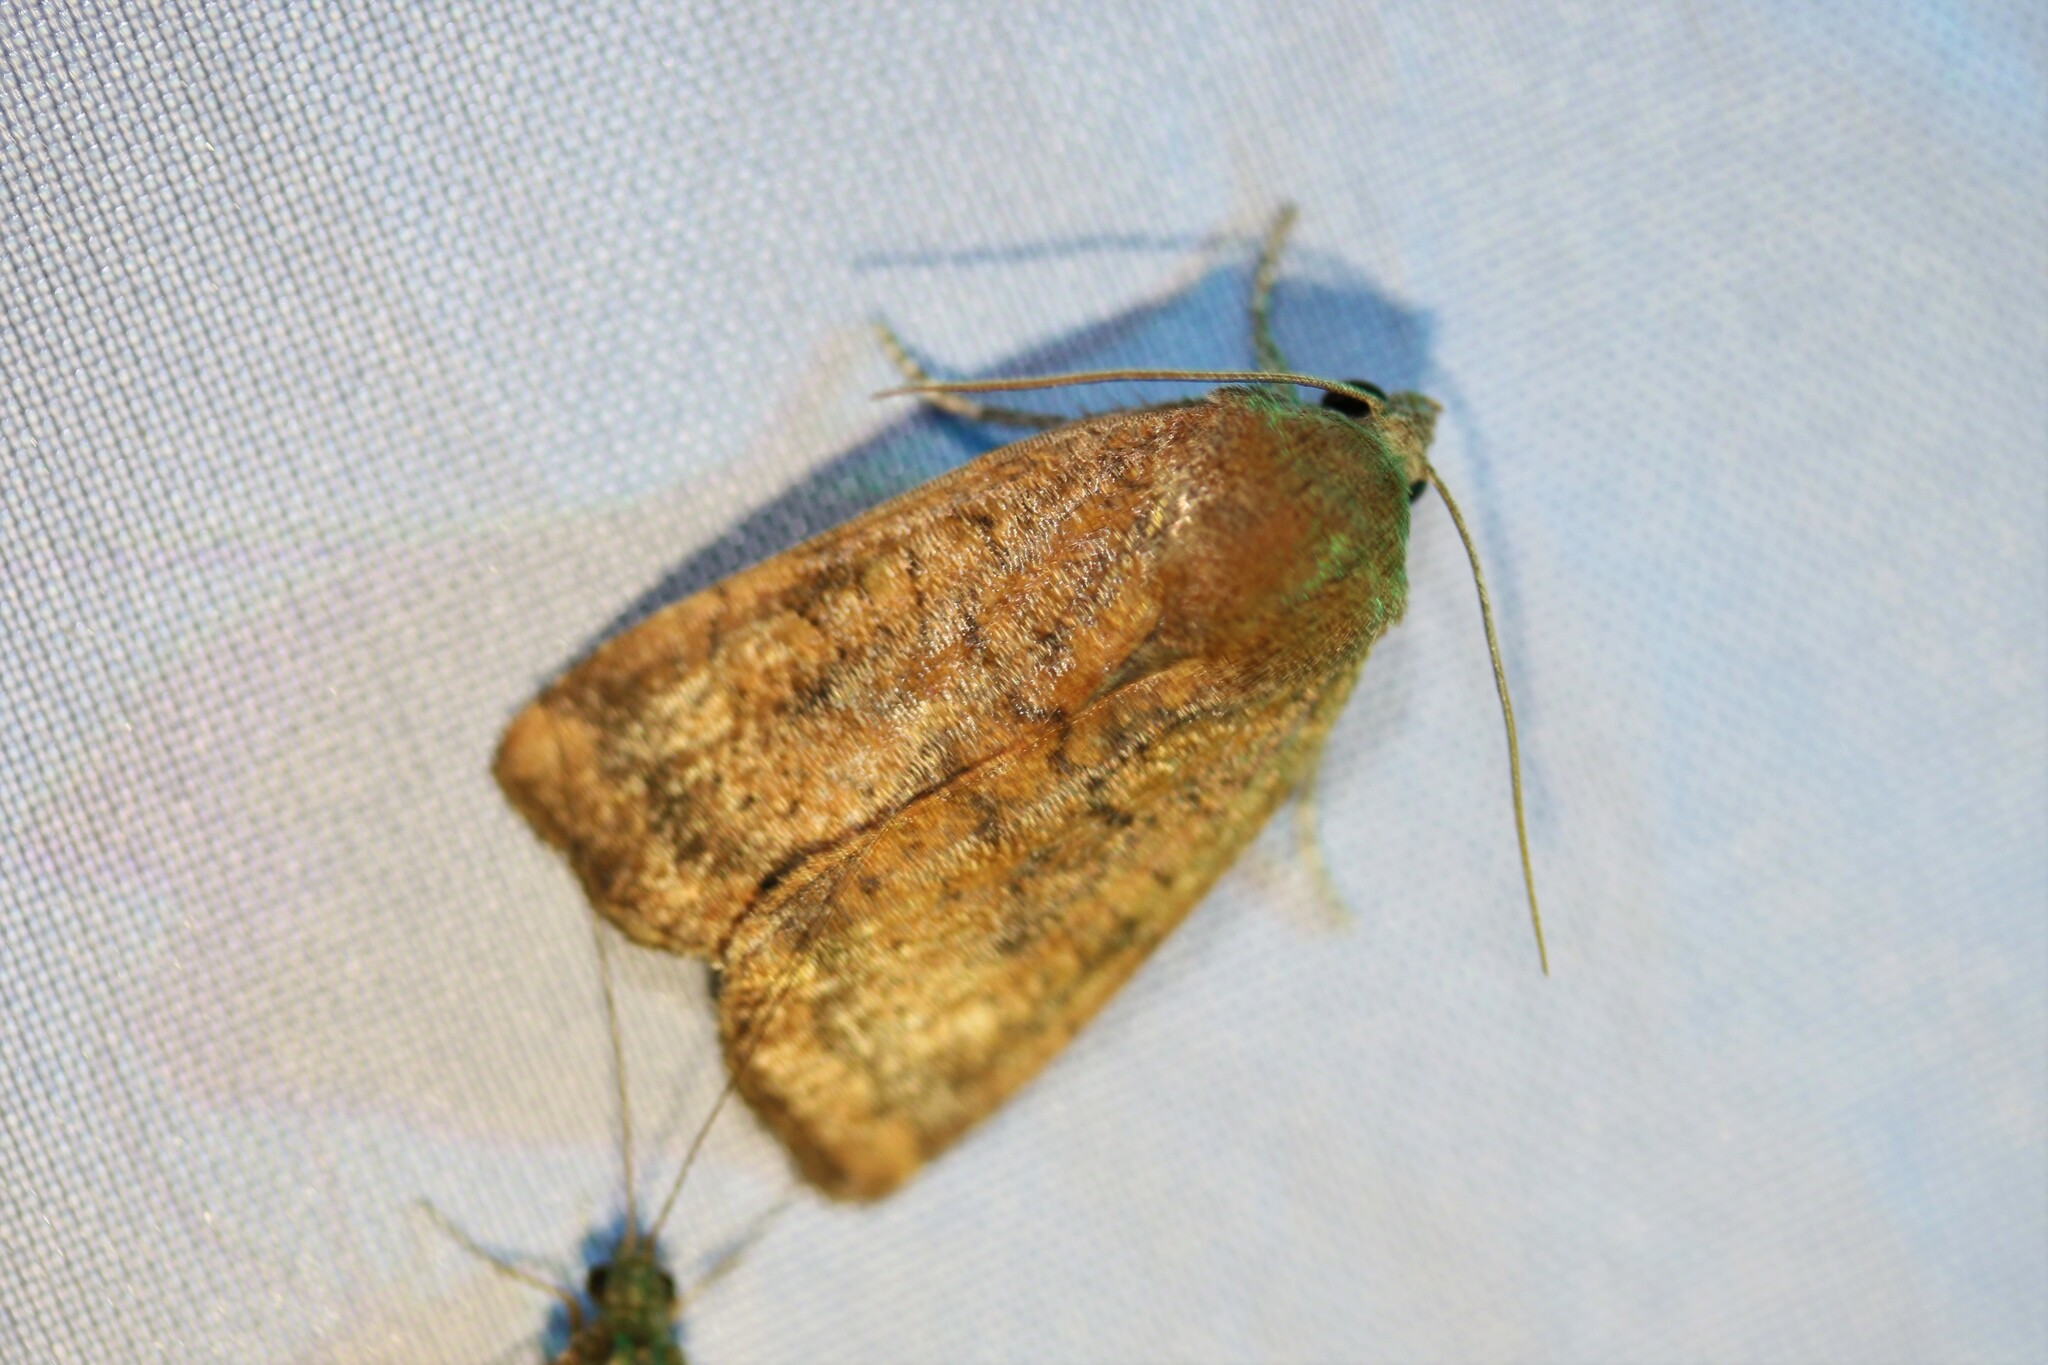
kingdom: Animalia
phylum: Arthropoda
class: Insecta
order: Lepidoptera
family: Noctuidae
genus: Noctua
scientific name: Noctua interjecta
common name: Least yellow underwing
